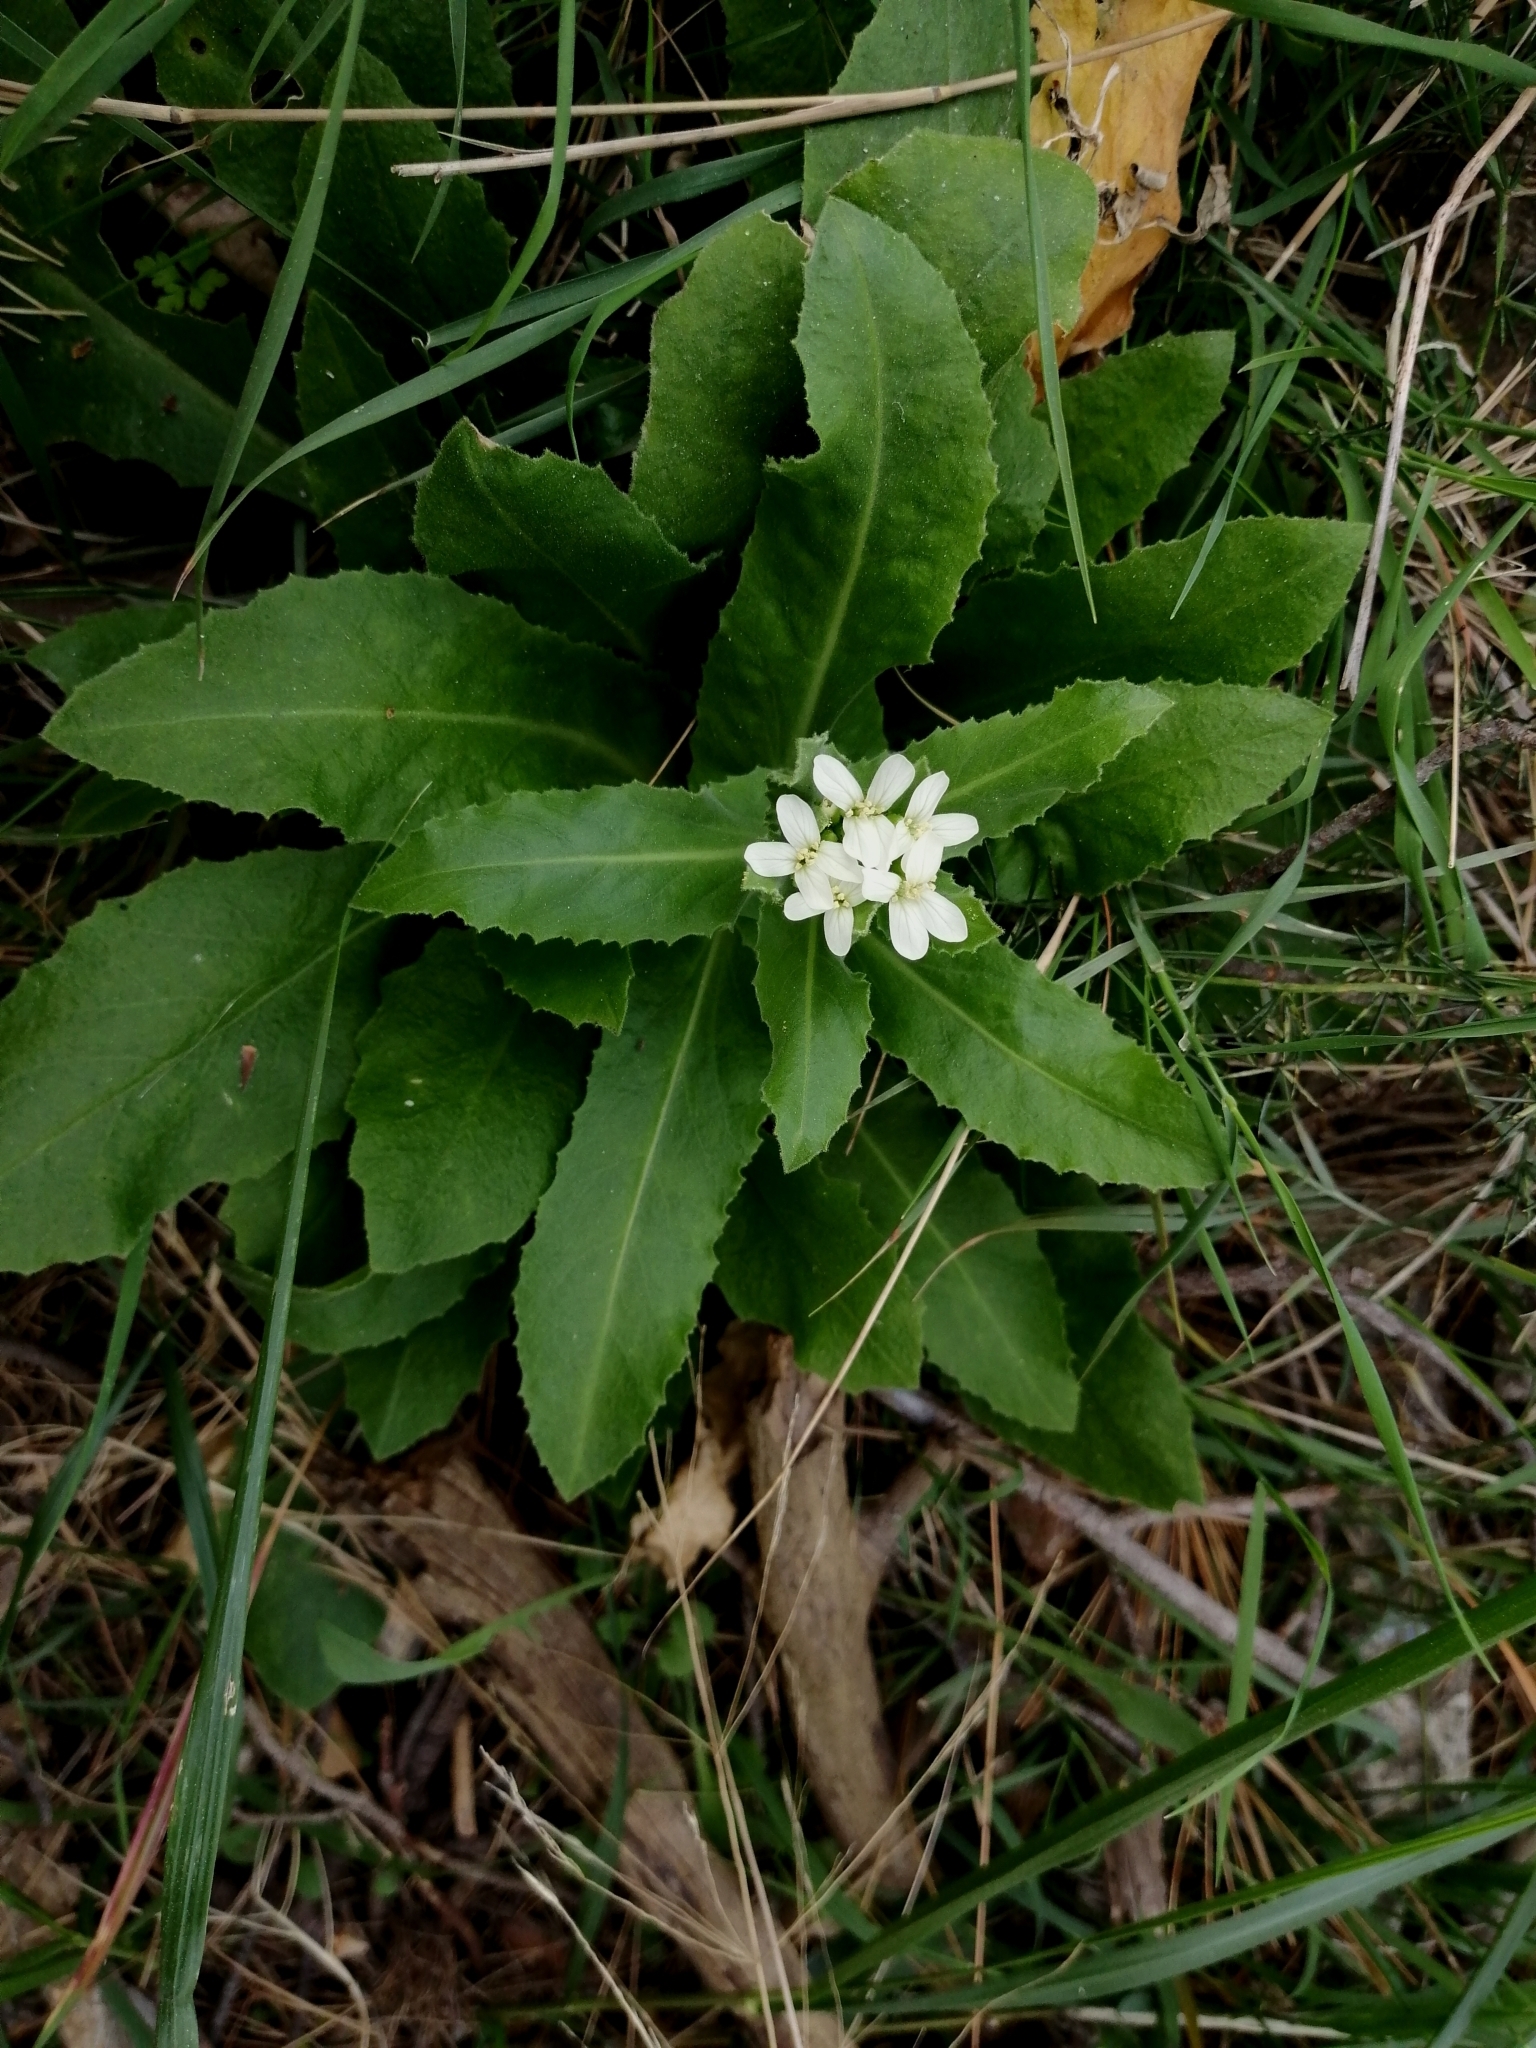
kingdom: Plantae
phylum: Tracheophyta
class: Magnoliopsida
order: Brassicales
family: Brassicaceae
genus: Pseudoturritis
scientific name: Pseudoturritis turrita
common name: Tower cress
